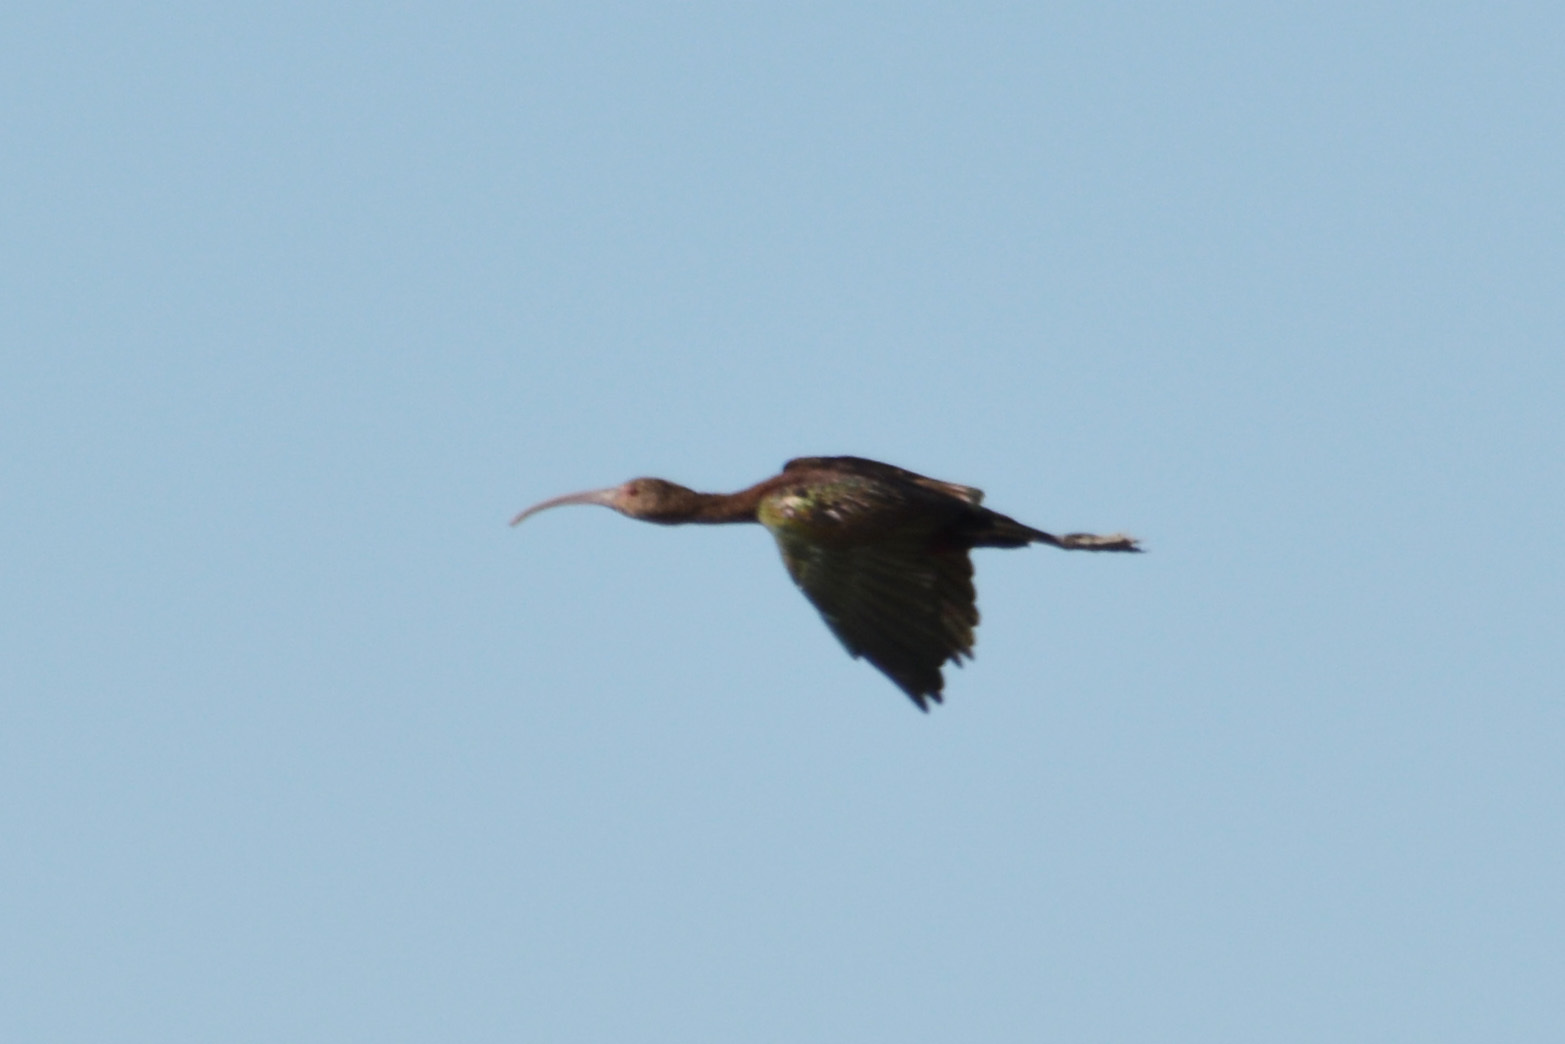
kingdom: Animalia
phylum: Chordata
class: Aves
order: Pelecaniformes
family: Threskiornithidae
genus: Plegadis
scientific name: Plegadis chihi
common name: White-faced ibis
